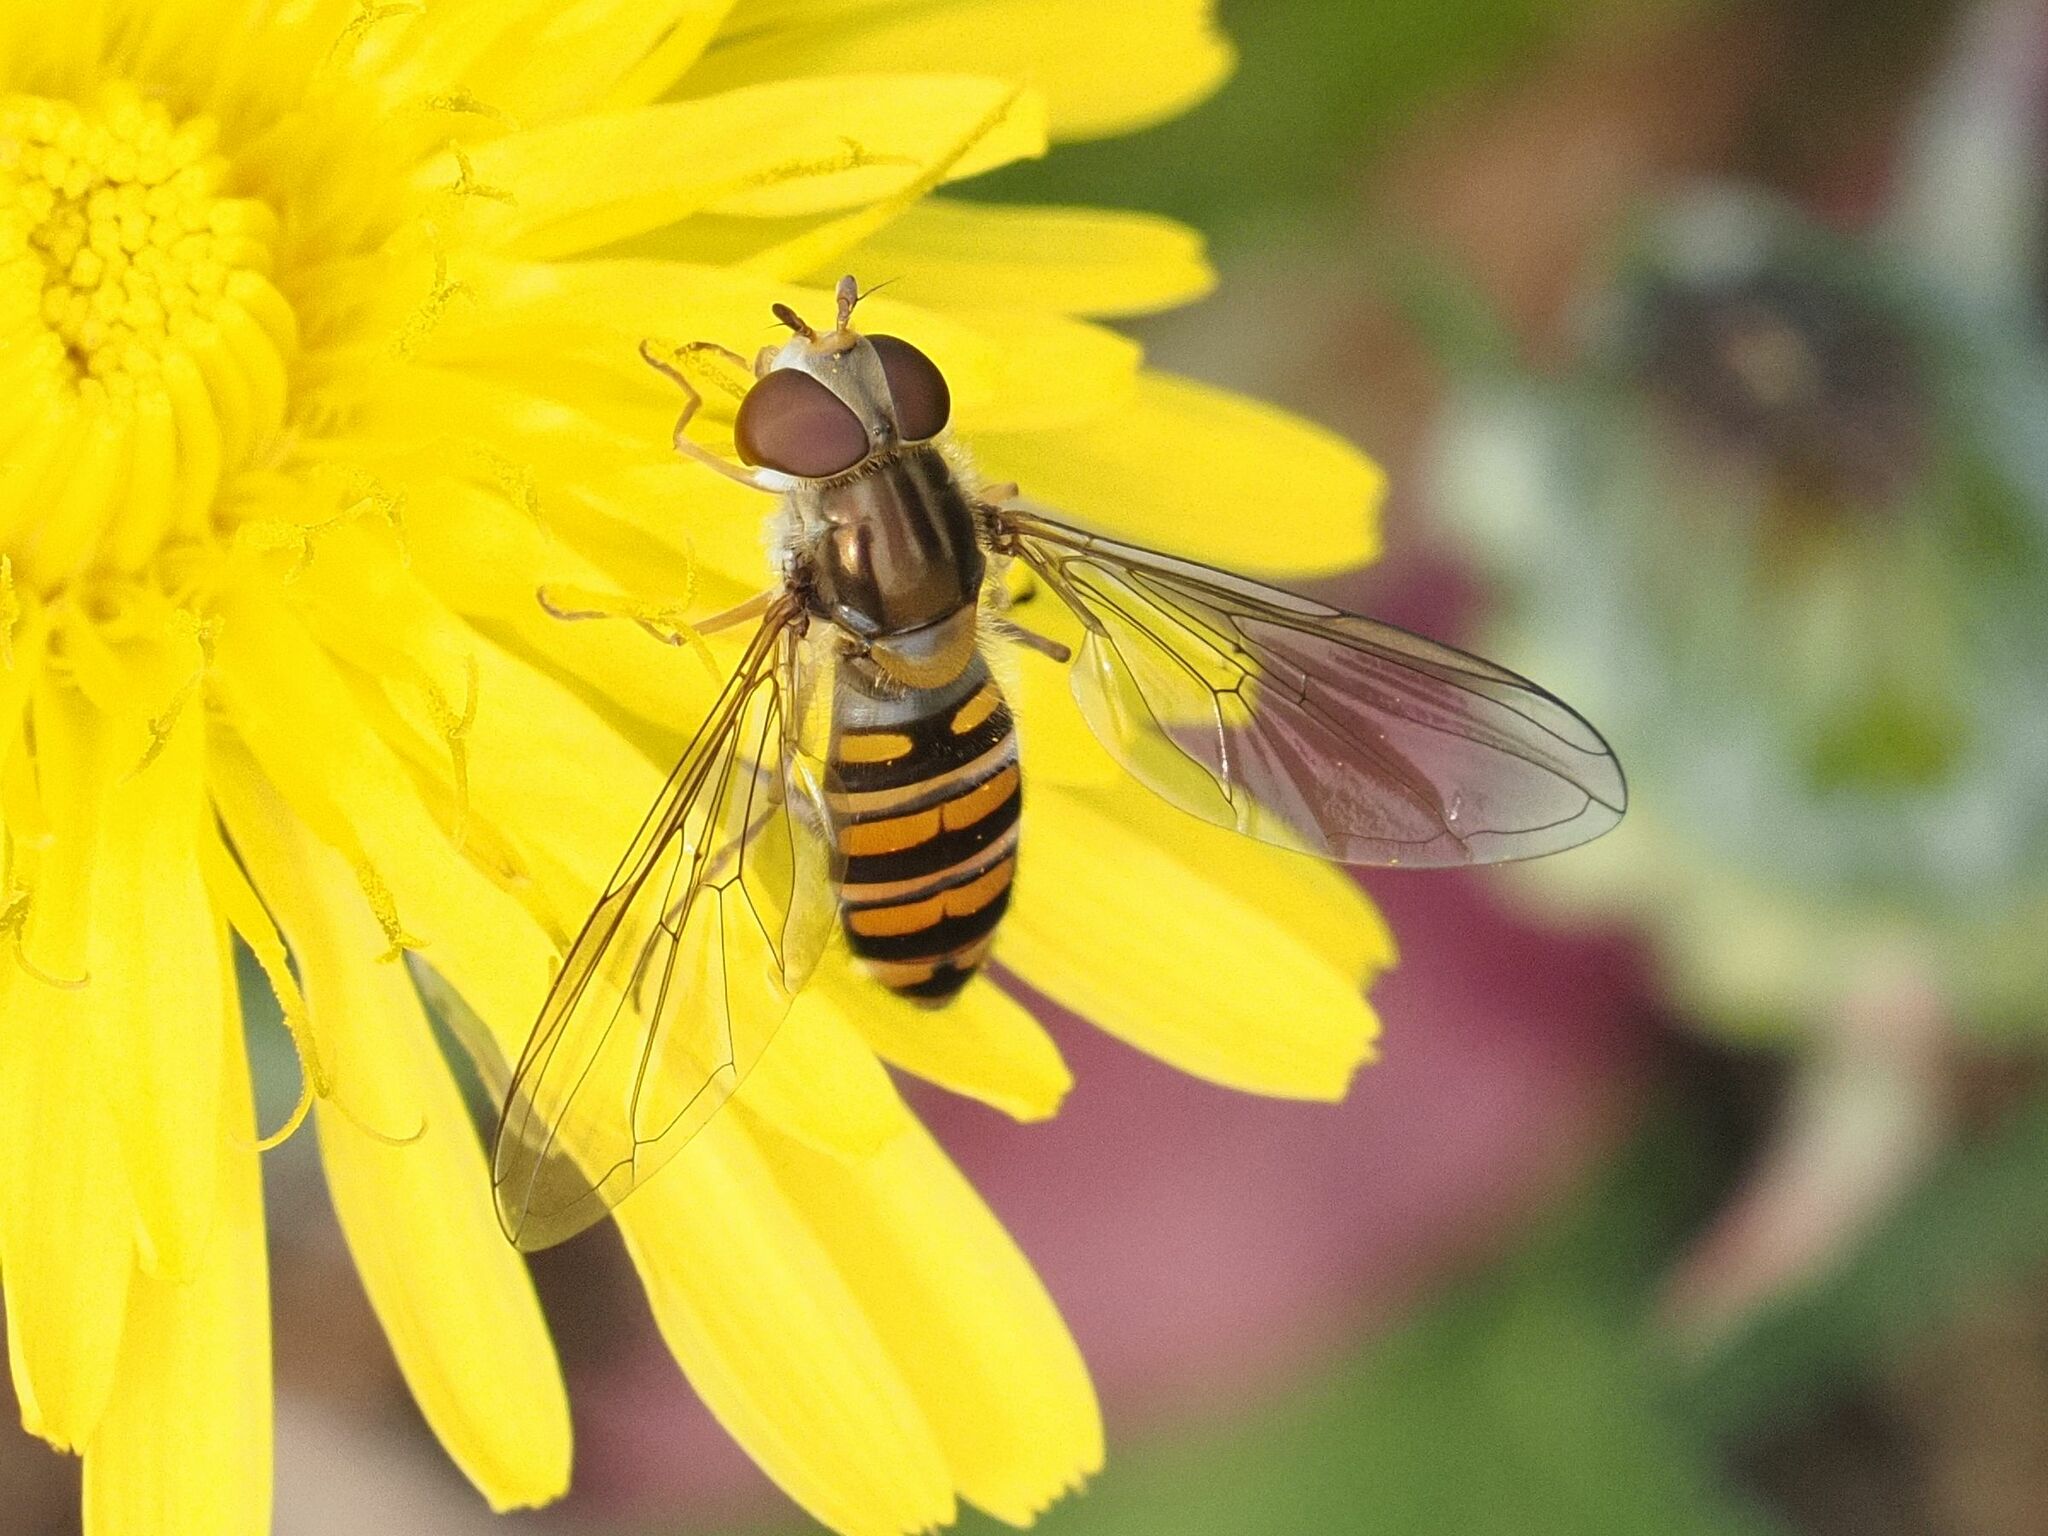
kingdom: Animalia
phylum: Arthropoda
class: Insecta
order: Diptera
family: Syrphidae
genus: Episyrphus
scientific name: Episyrphus balteatus
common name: Marmalade hoverfly
